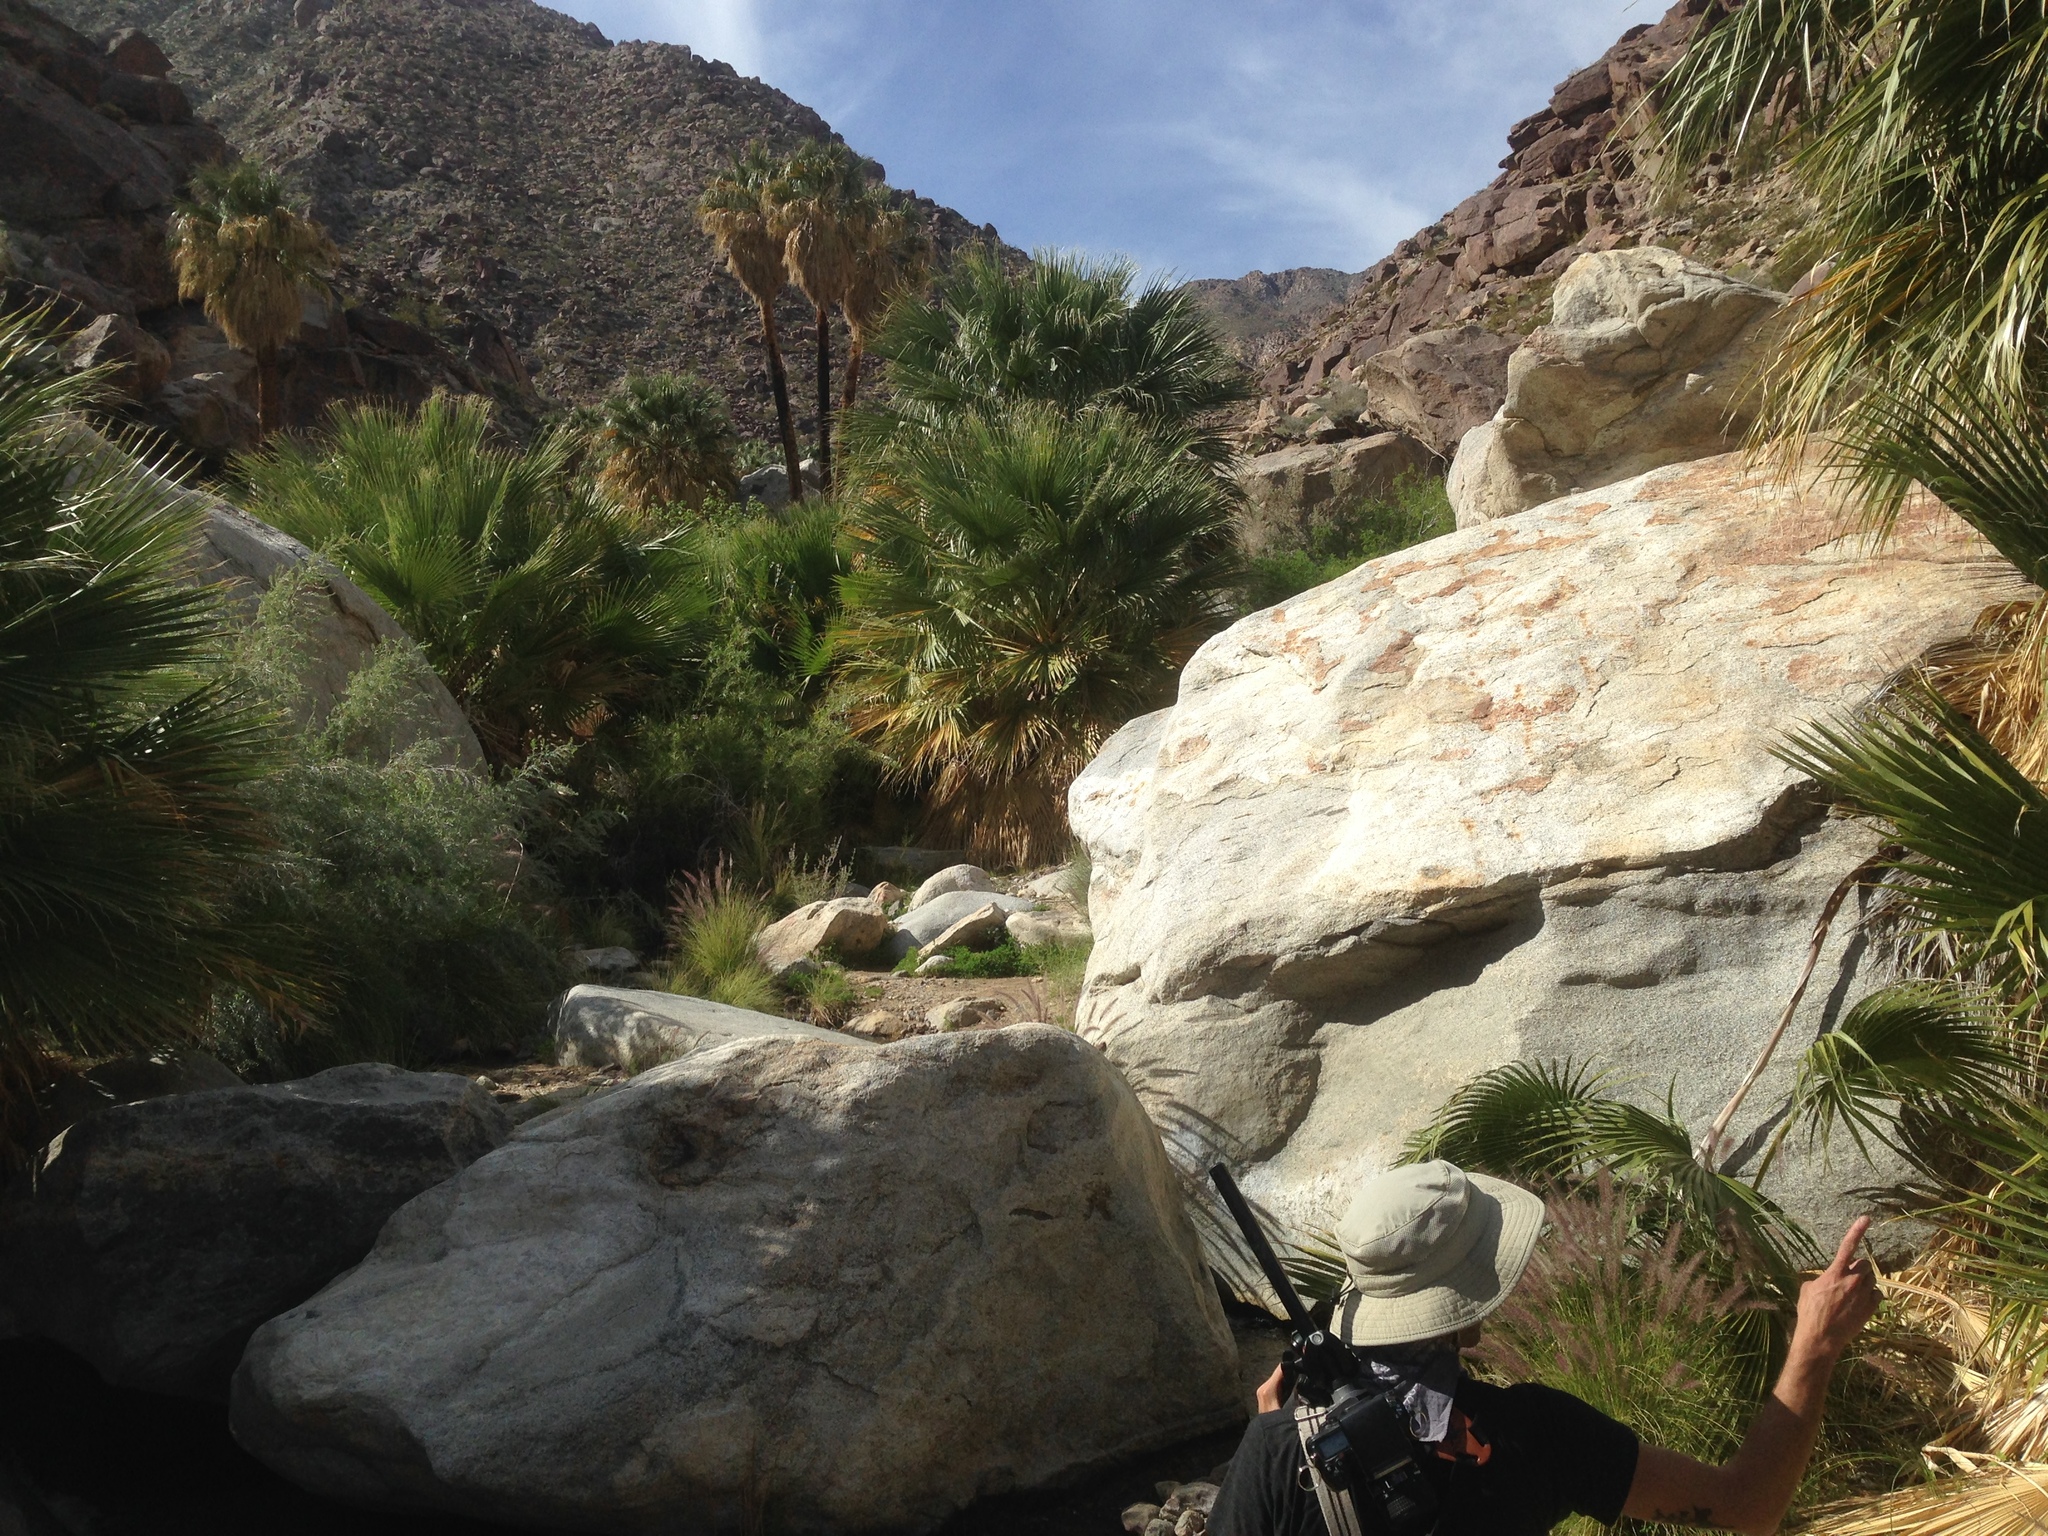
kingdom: Plantae
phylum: Tracheophyta
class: Liliopsida
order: Arecales
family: Arecaceae
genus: Washingtonia
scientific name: Washingtonia filifera
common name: California fan palm
